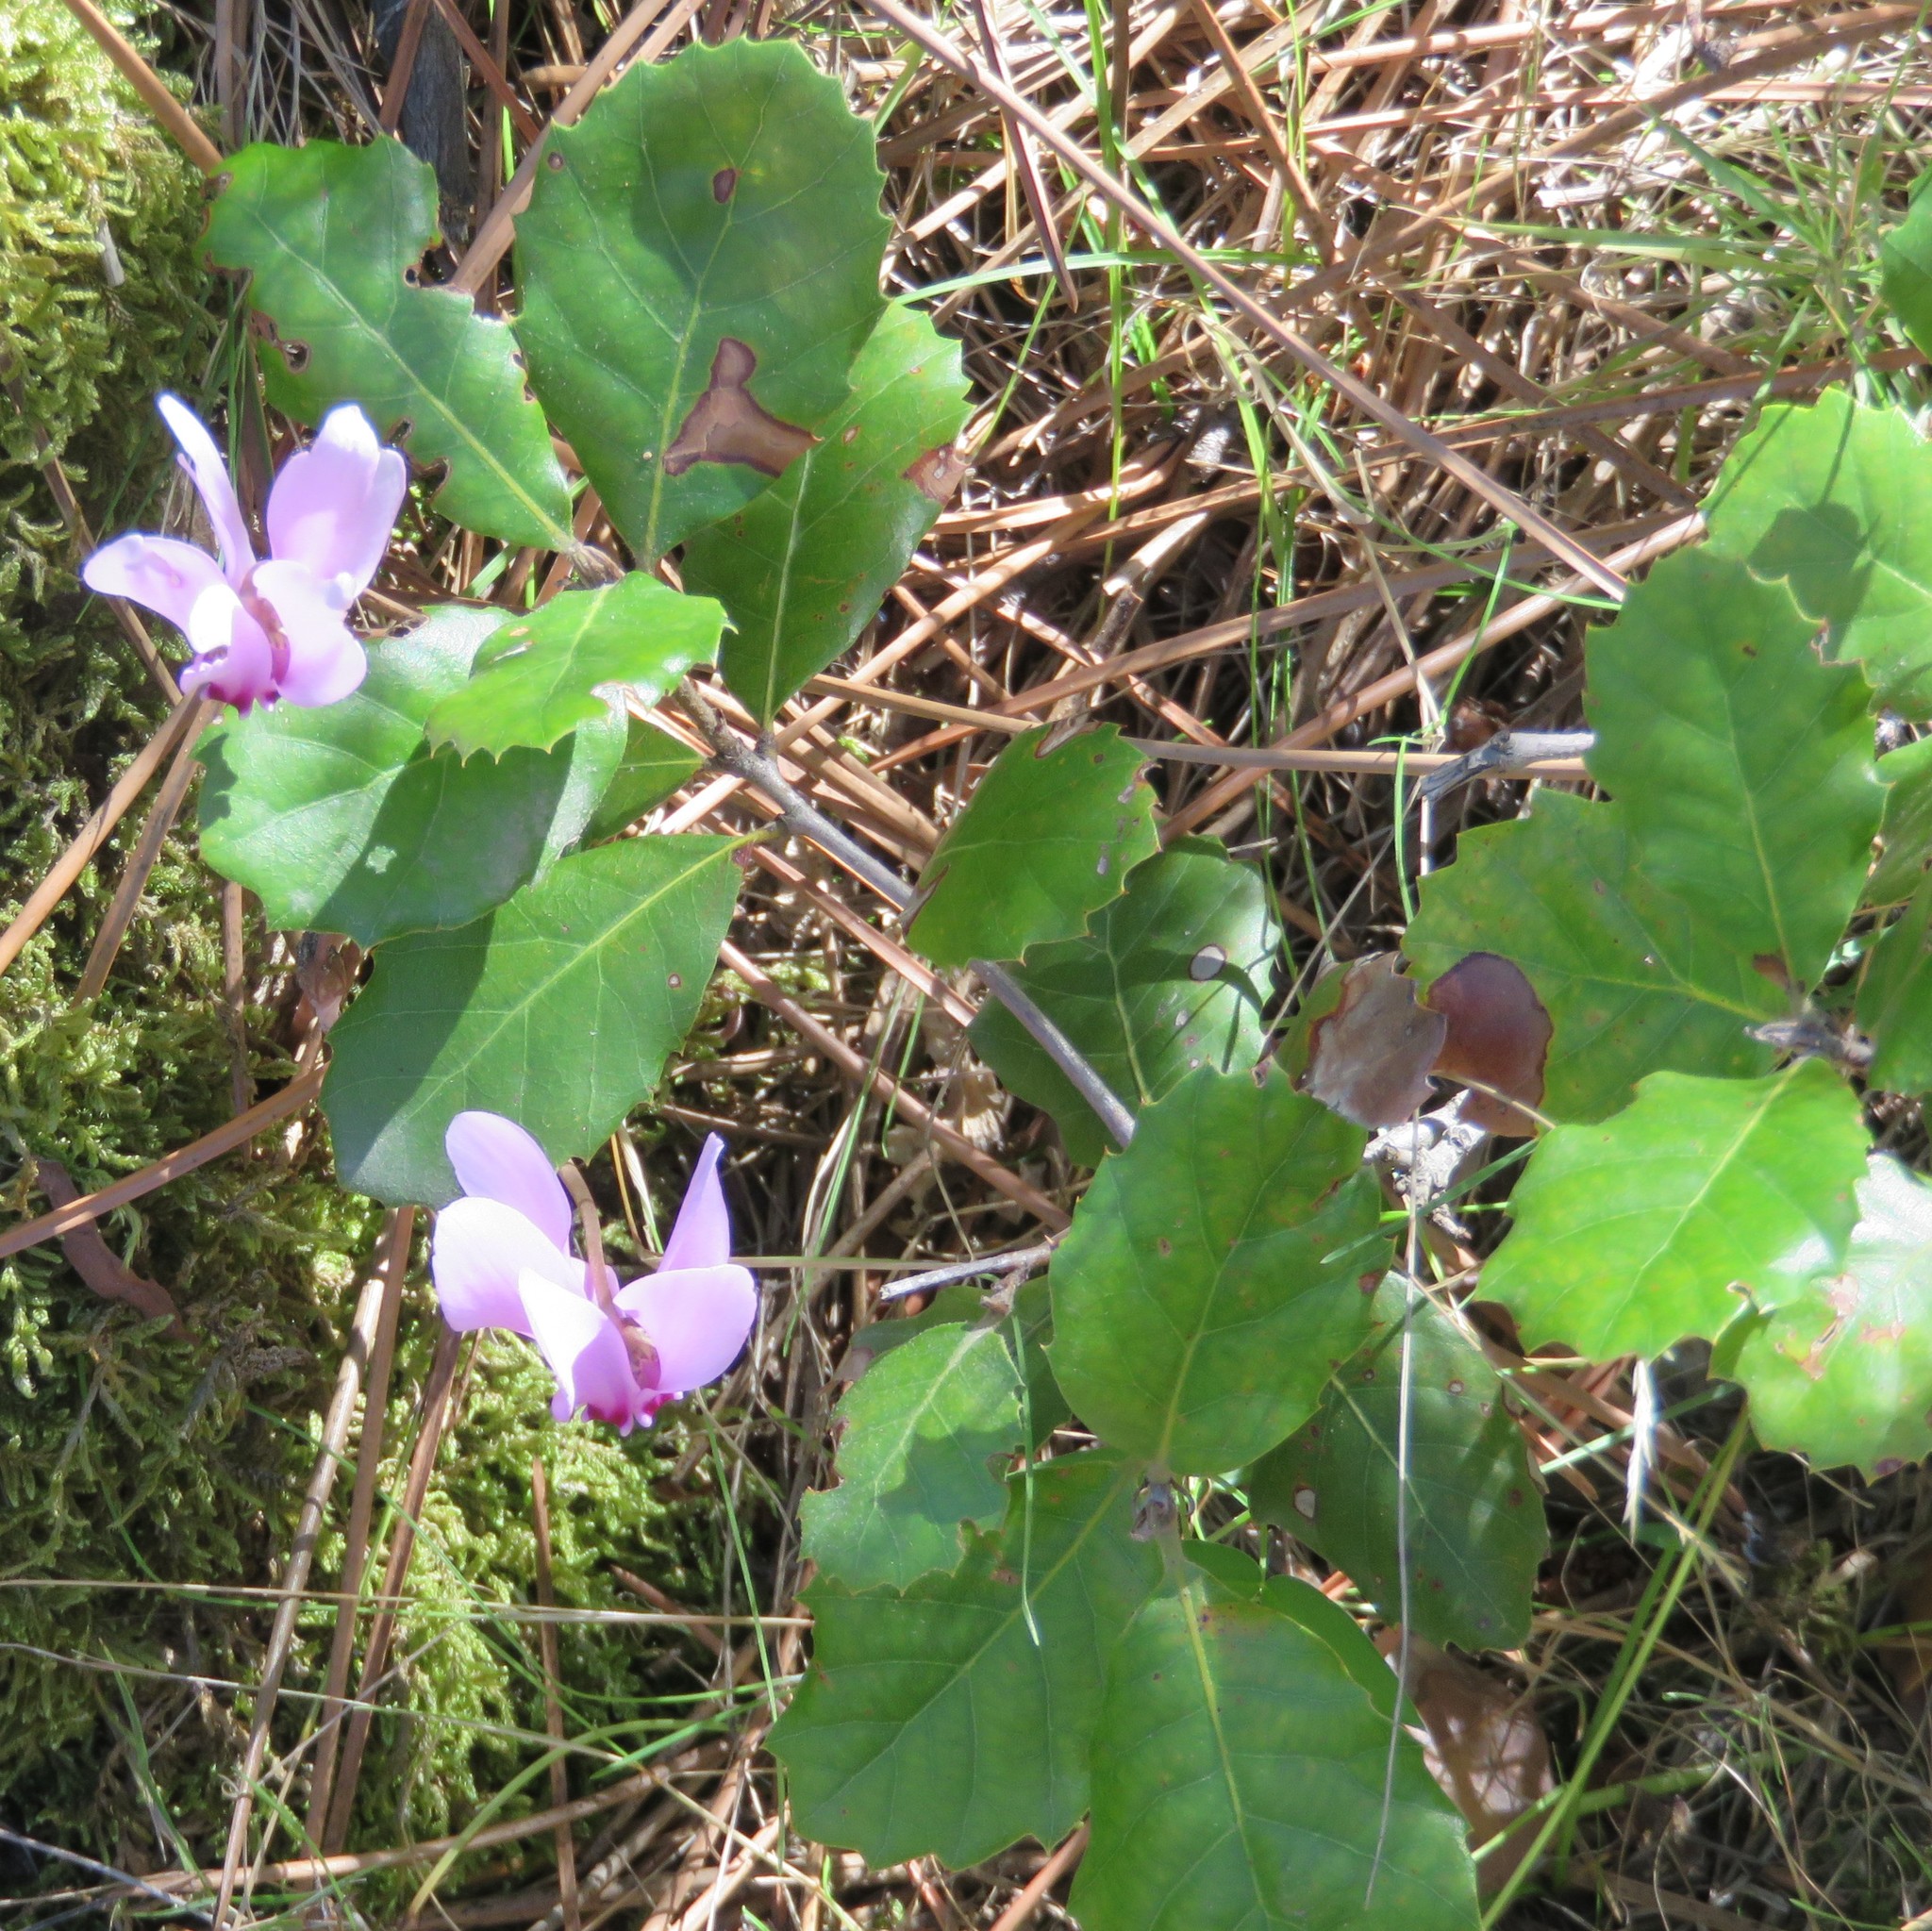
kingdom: Plantae
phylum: Tracheophyta
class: Magnoliopsida
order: Ericales
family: Primulaceae
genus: Cyclamen
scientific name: Cyclamen hederifolium
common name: Sowbread
